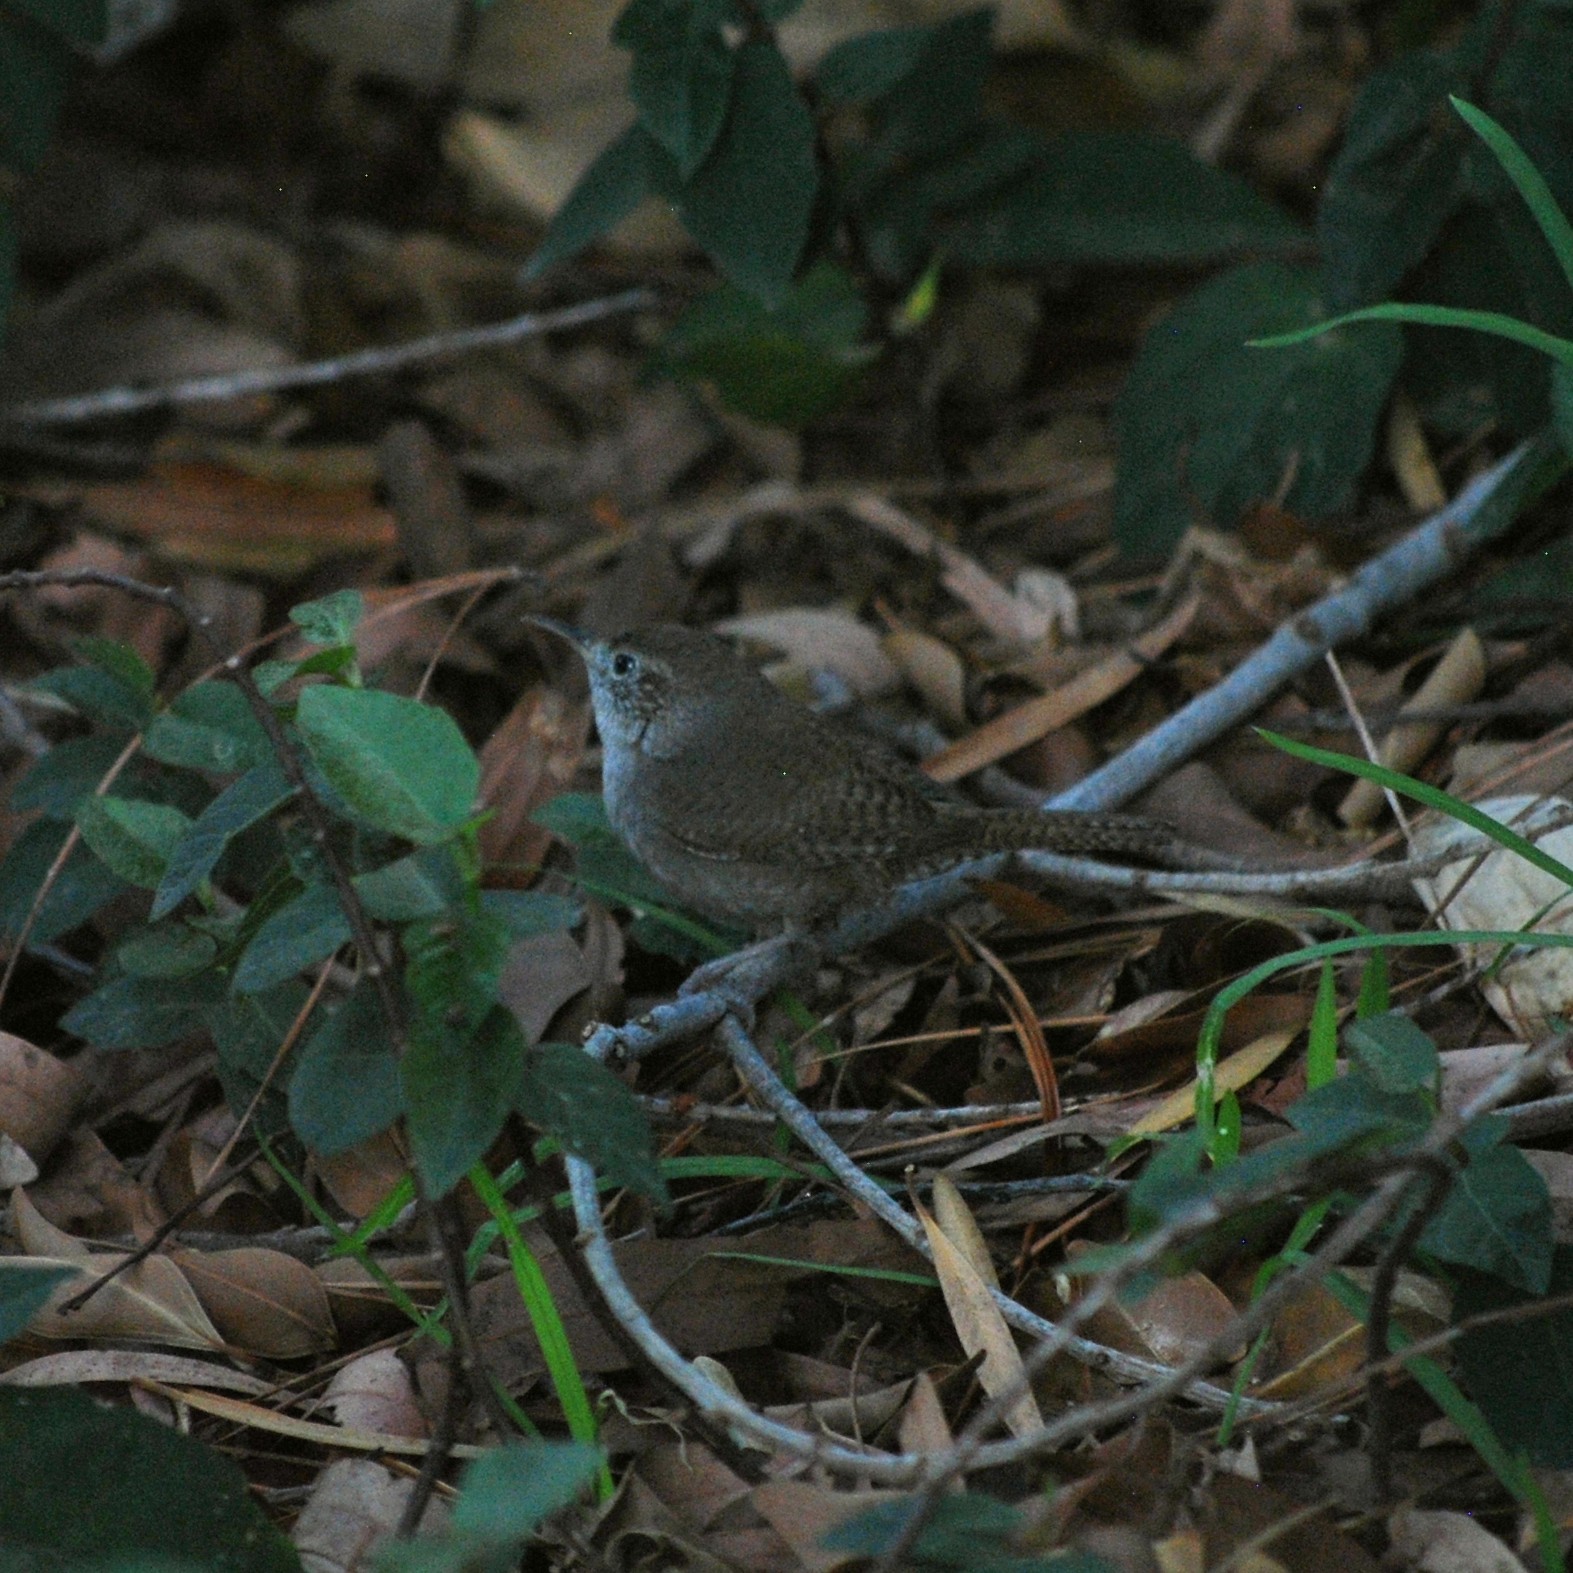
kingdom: Animalia
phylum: Chordata
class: Aves
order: Passeriformes
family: Troglodytidae
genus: Troglodytes
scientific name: Troglodytes aedon
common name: House wren
